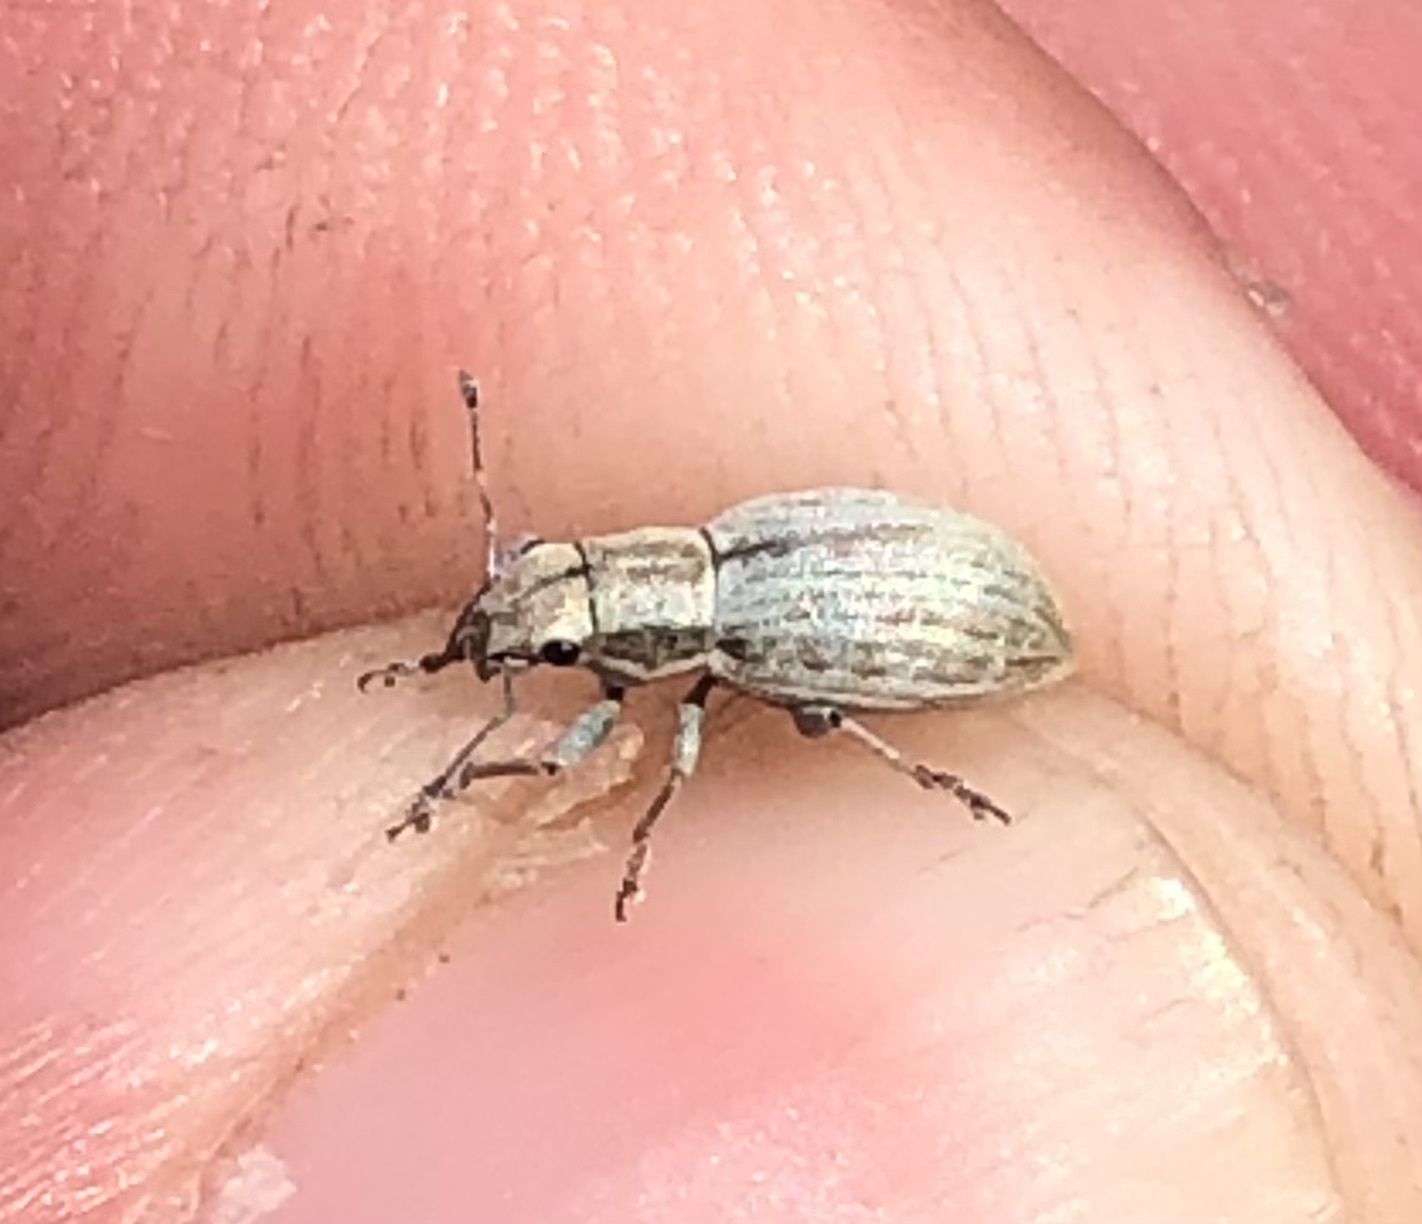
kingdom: Animalia
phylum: Arthropoda
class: Insecta
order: Coleoptera
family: Curculionidae
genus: Aramigus
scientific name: Aramigus tessellatus
